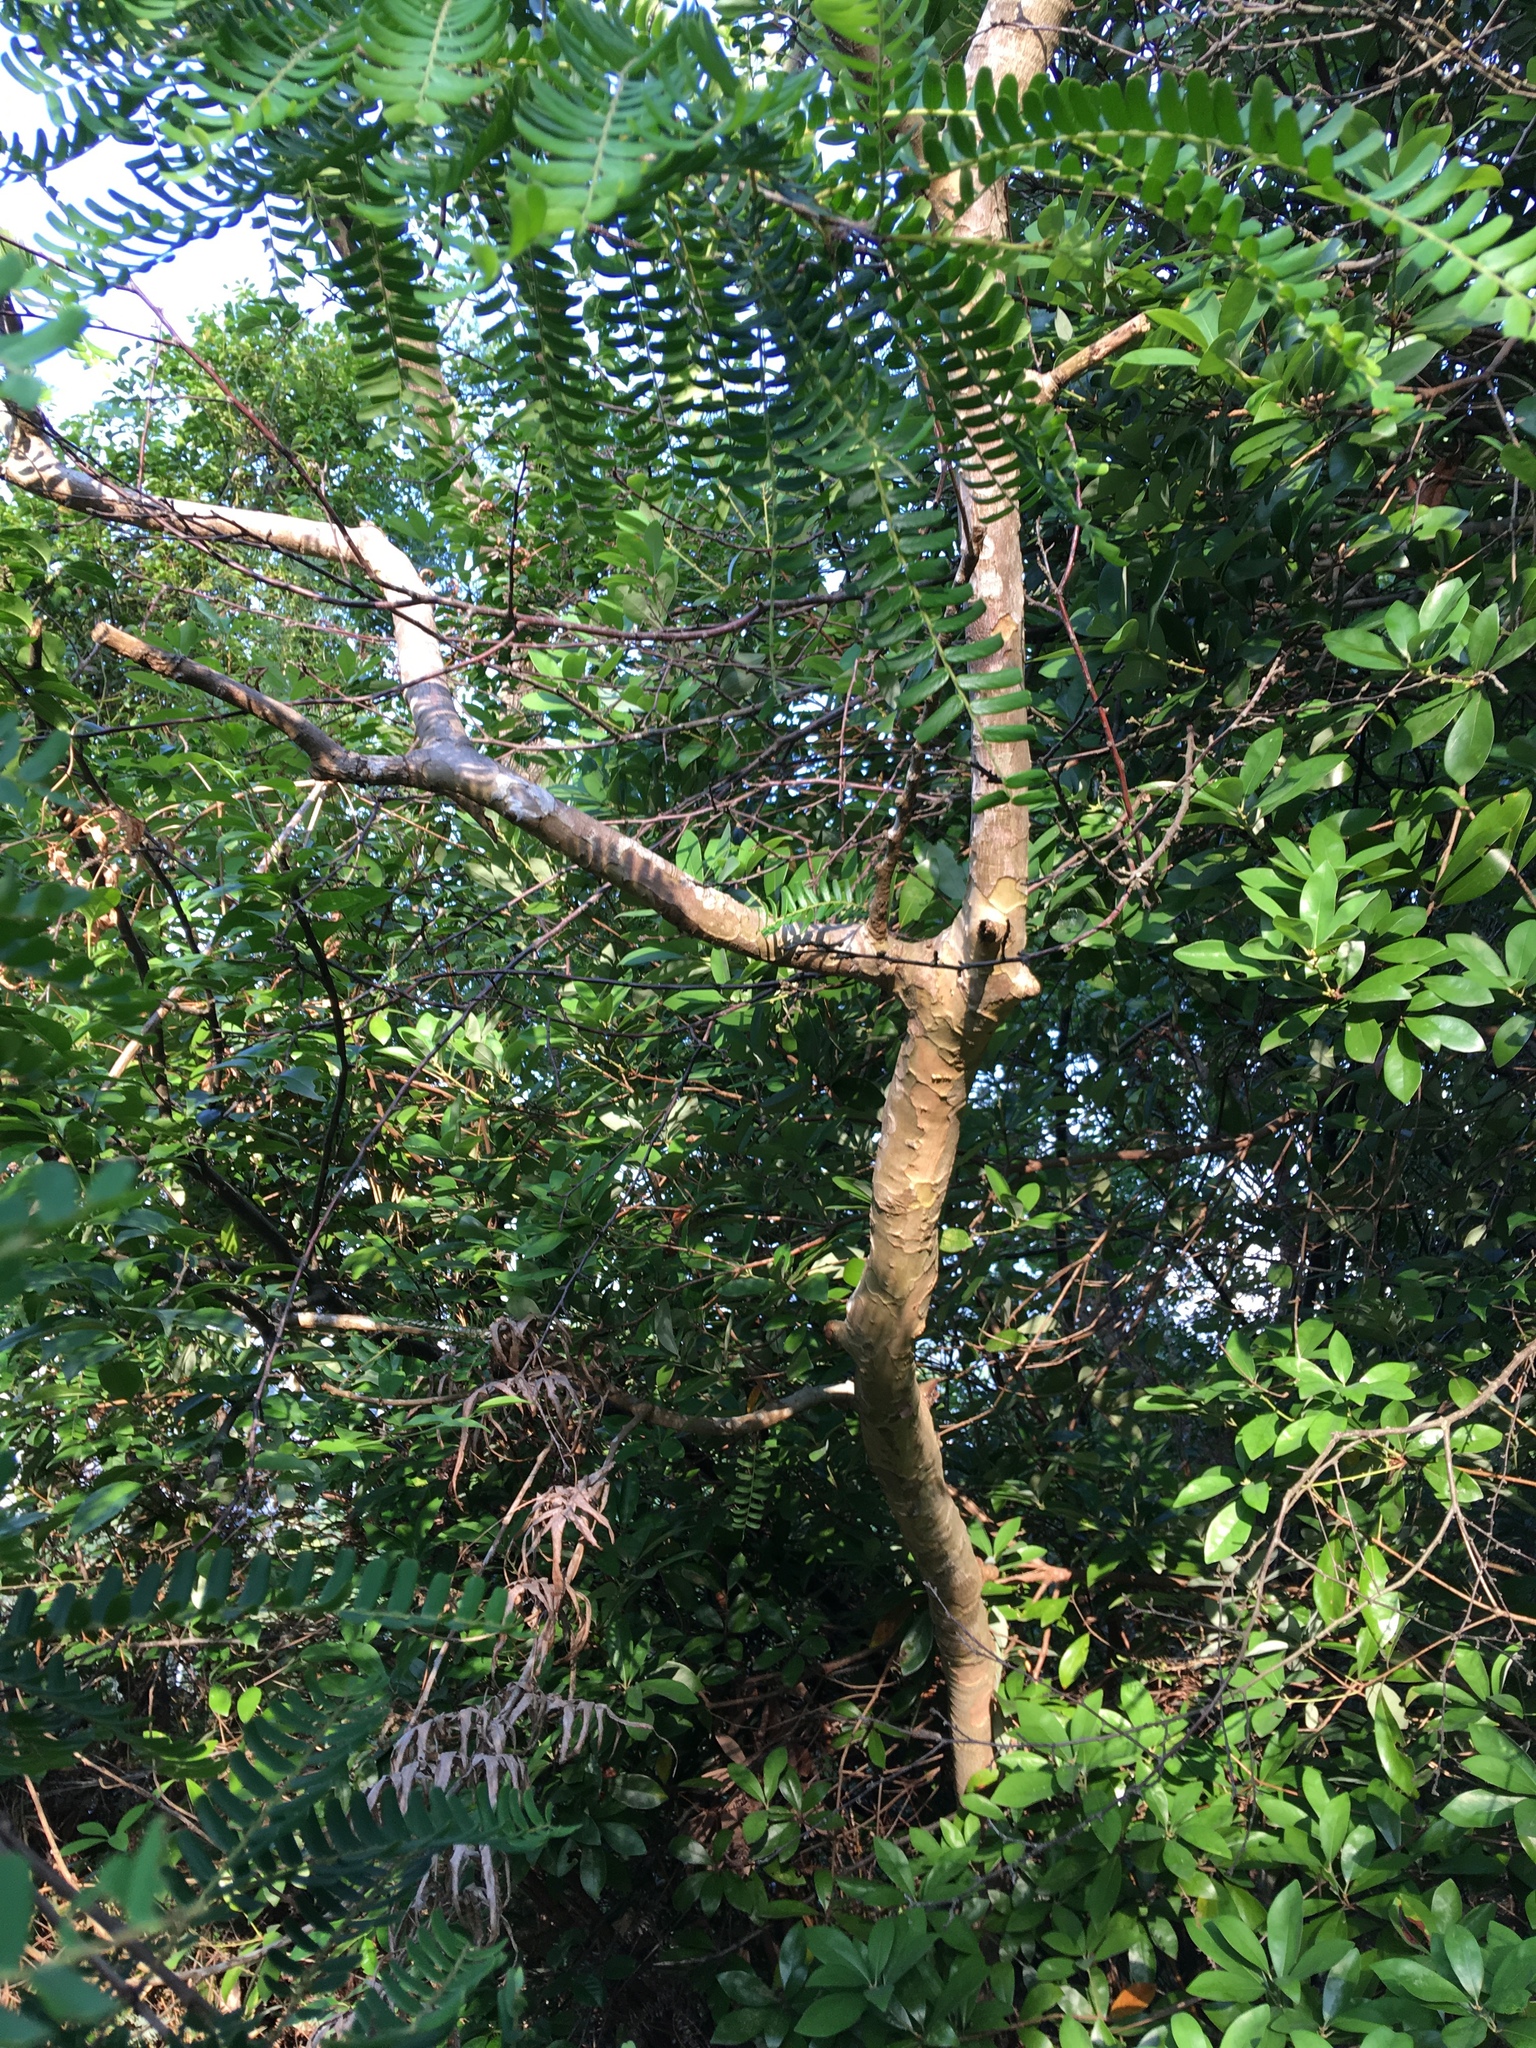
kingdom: Plantae
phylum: Tracheophyta
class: Magnoliopsida
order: Malpighiales
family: Phyllanthaceae
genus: Phyllanthus
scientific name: Phyllanthus emblica
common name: Indian gooseberry
